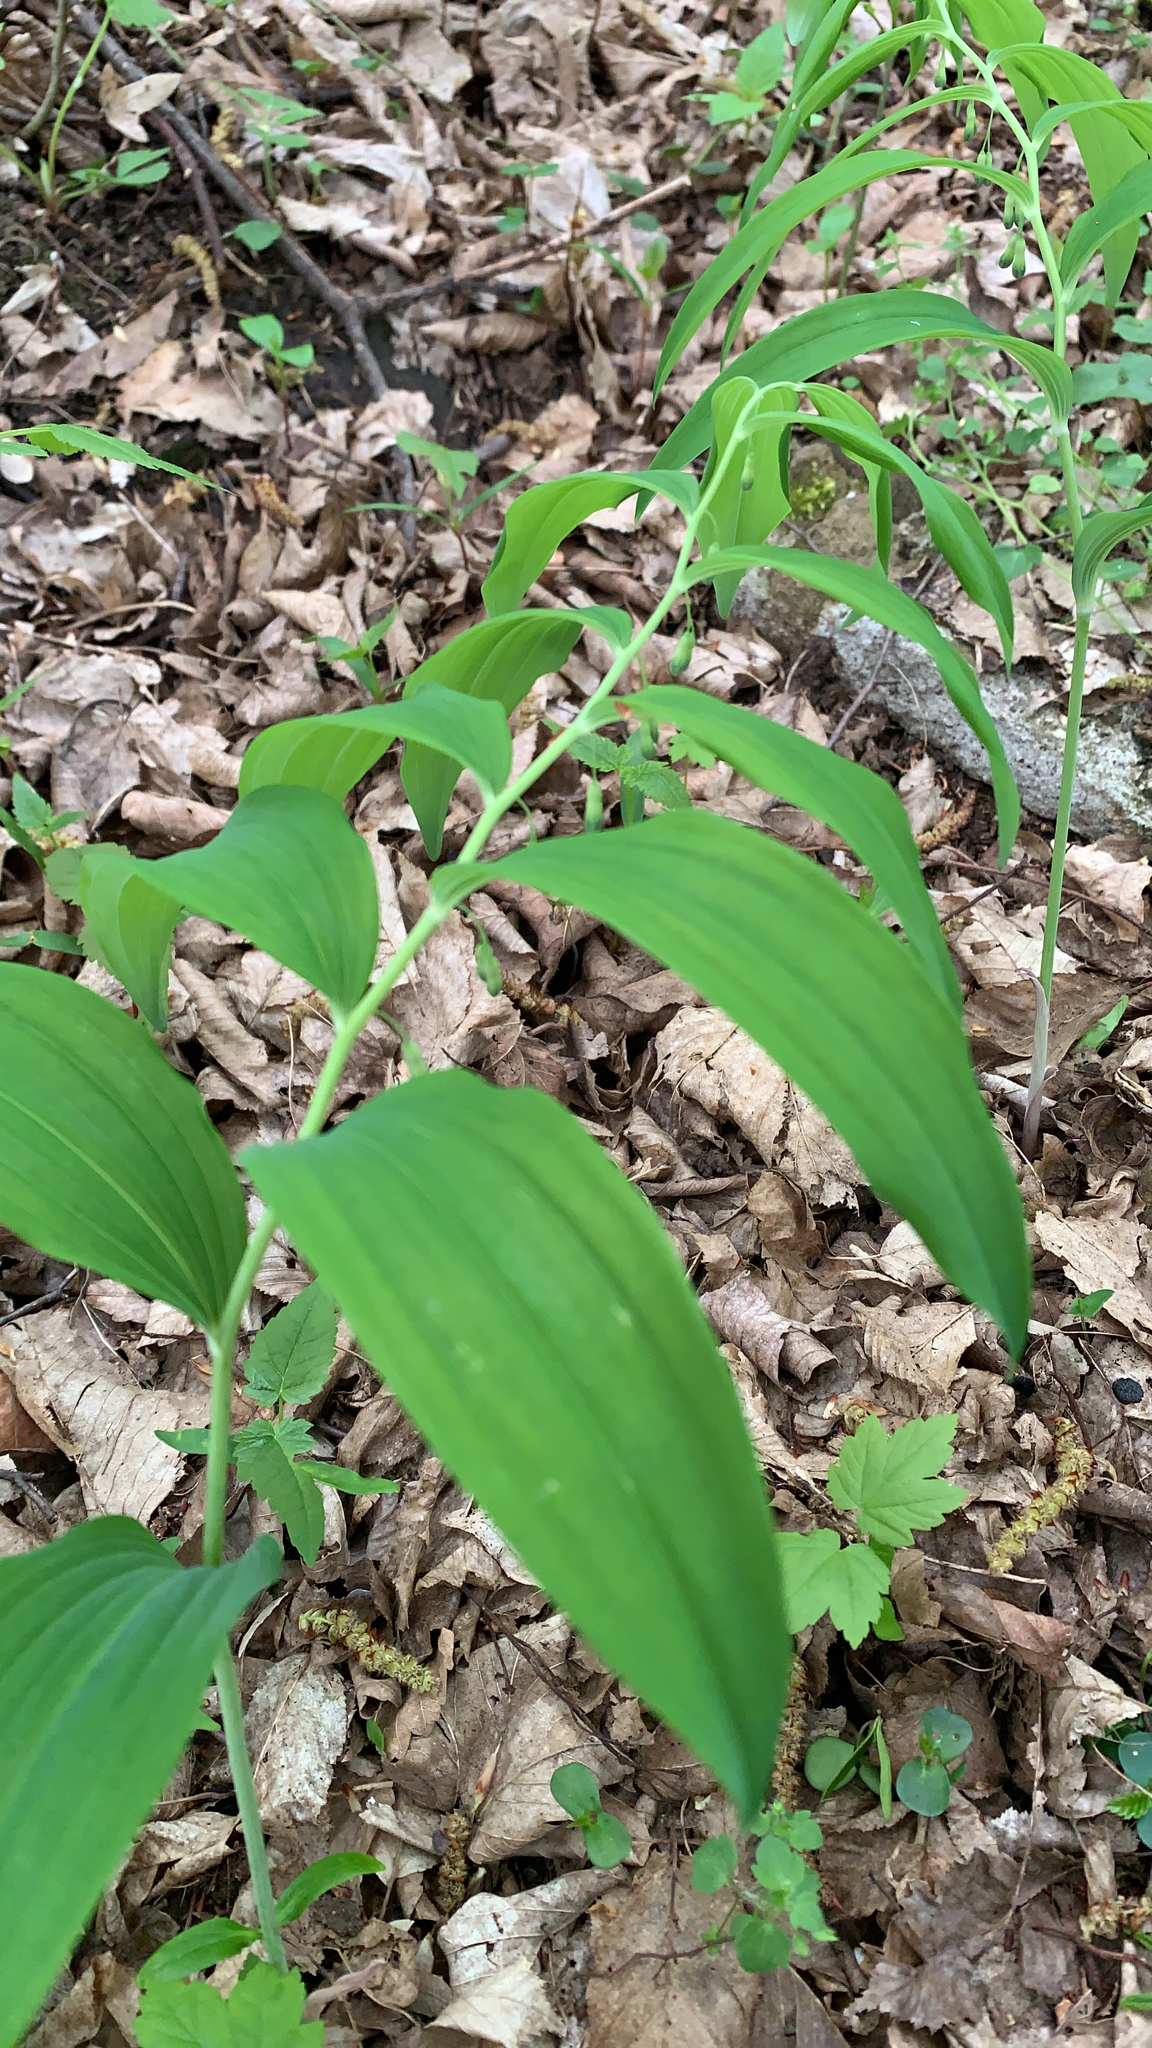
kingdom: Plantae
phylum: Tracheophyta
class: Liliopsida
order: Asparagales
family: Asparagaceae
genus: Polygonatum
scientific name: Polygonatum multiflorum
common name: Solomon's-seal
